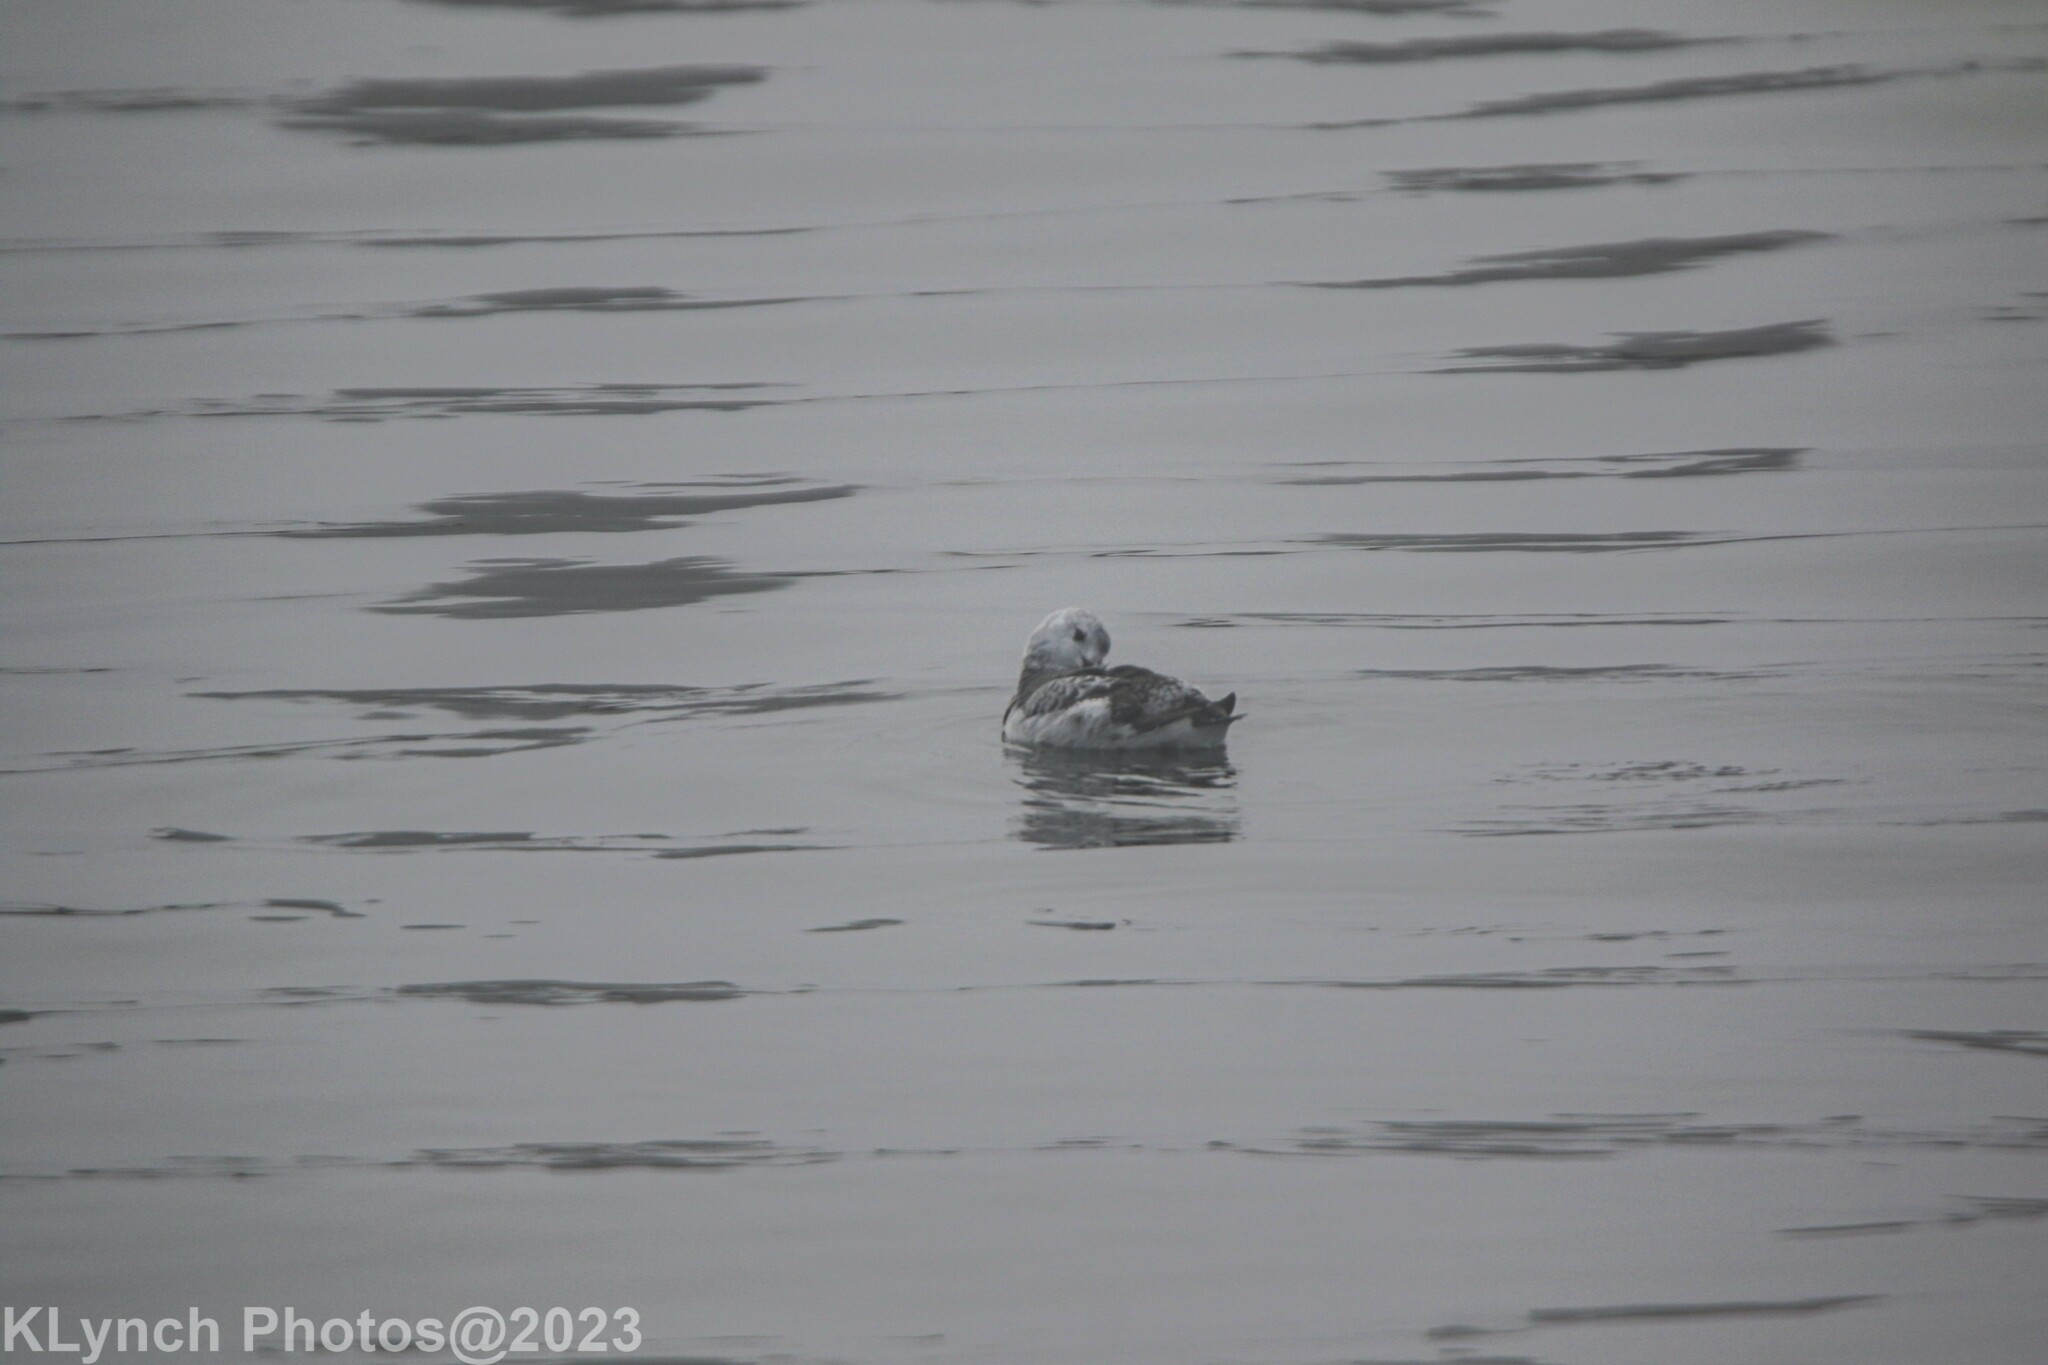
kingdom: Animalia
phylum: Chordata
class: Aves
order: Charadriiformes
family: Alcidae
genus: Cepphus
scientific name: Cepphus grylle
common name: Black guillemot
